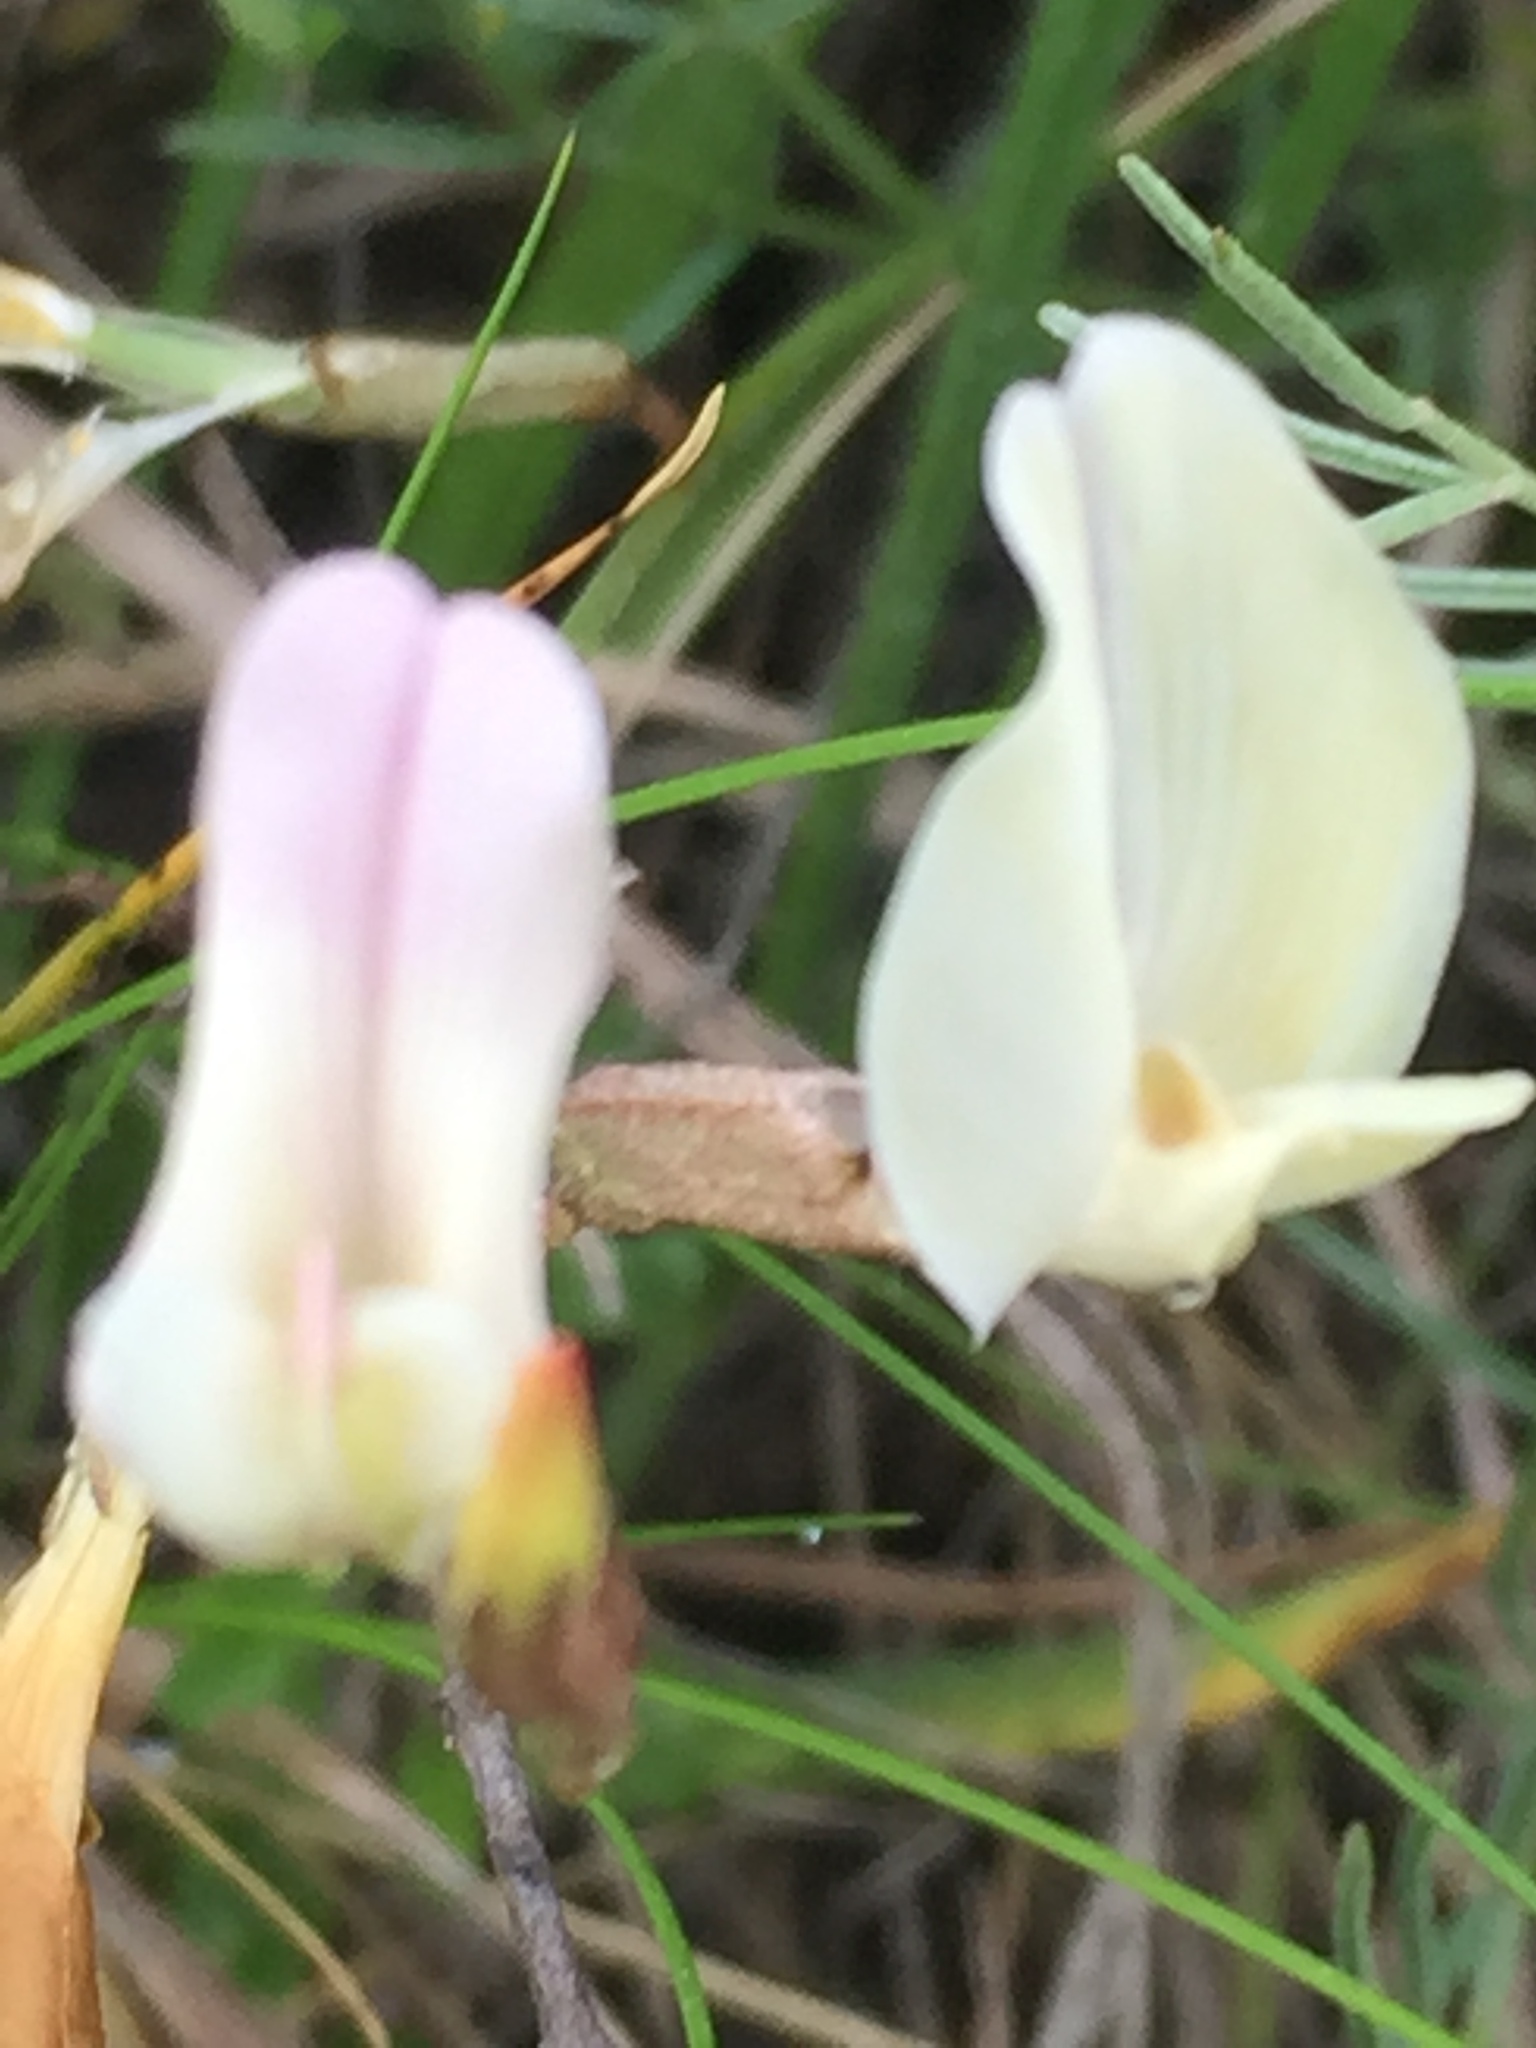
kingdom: Plantae
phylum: Tracheophyta
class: Magnoliopsida
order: Fabales
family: Fabaceae
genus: Astragalus
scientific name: Astragalus ucrainicus
